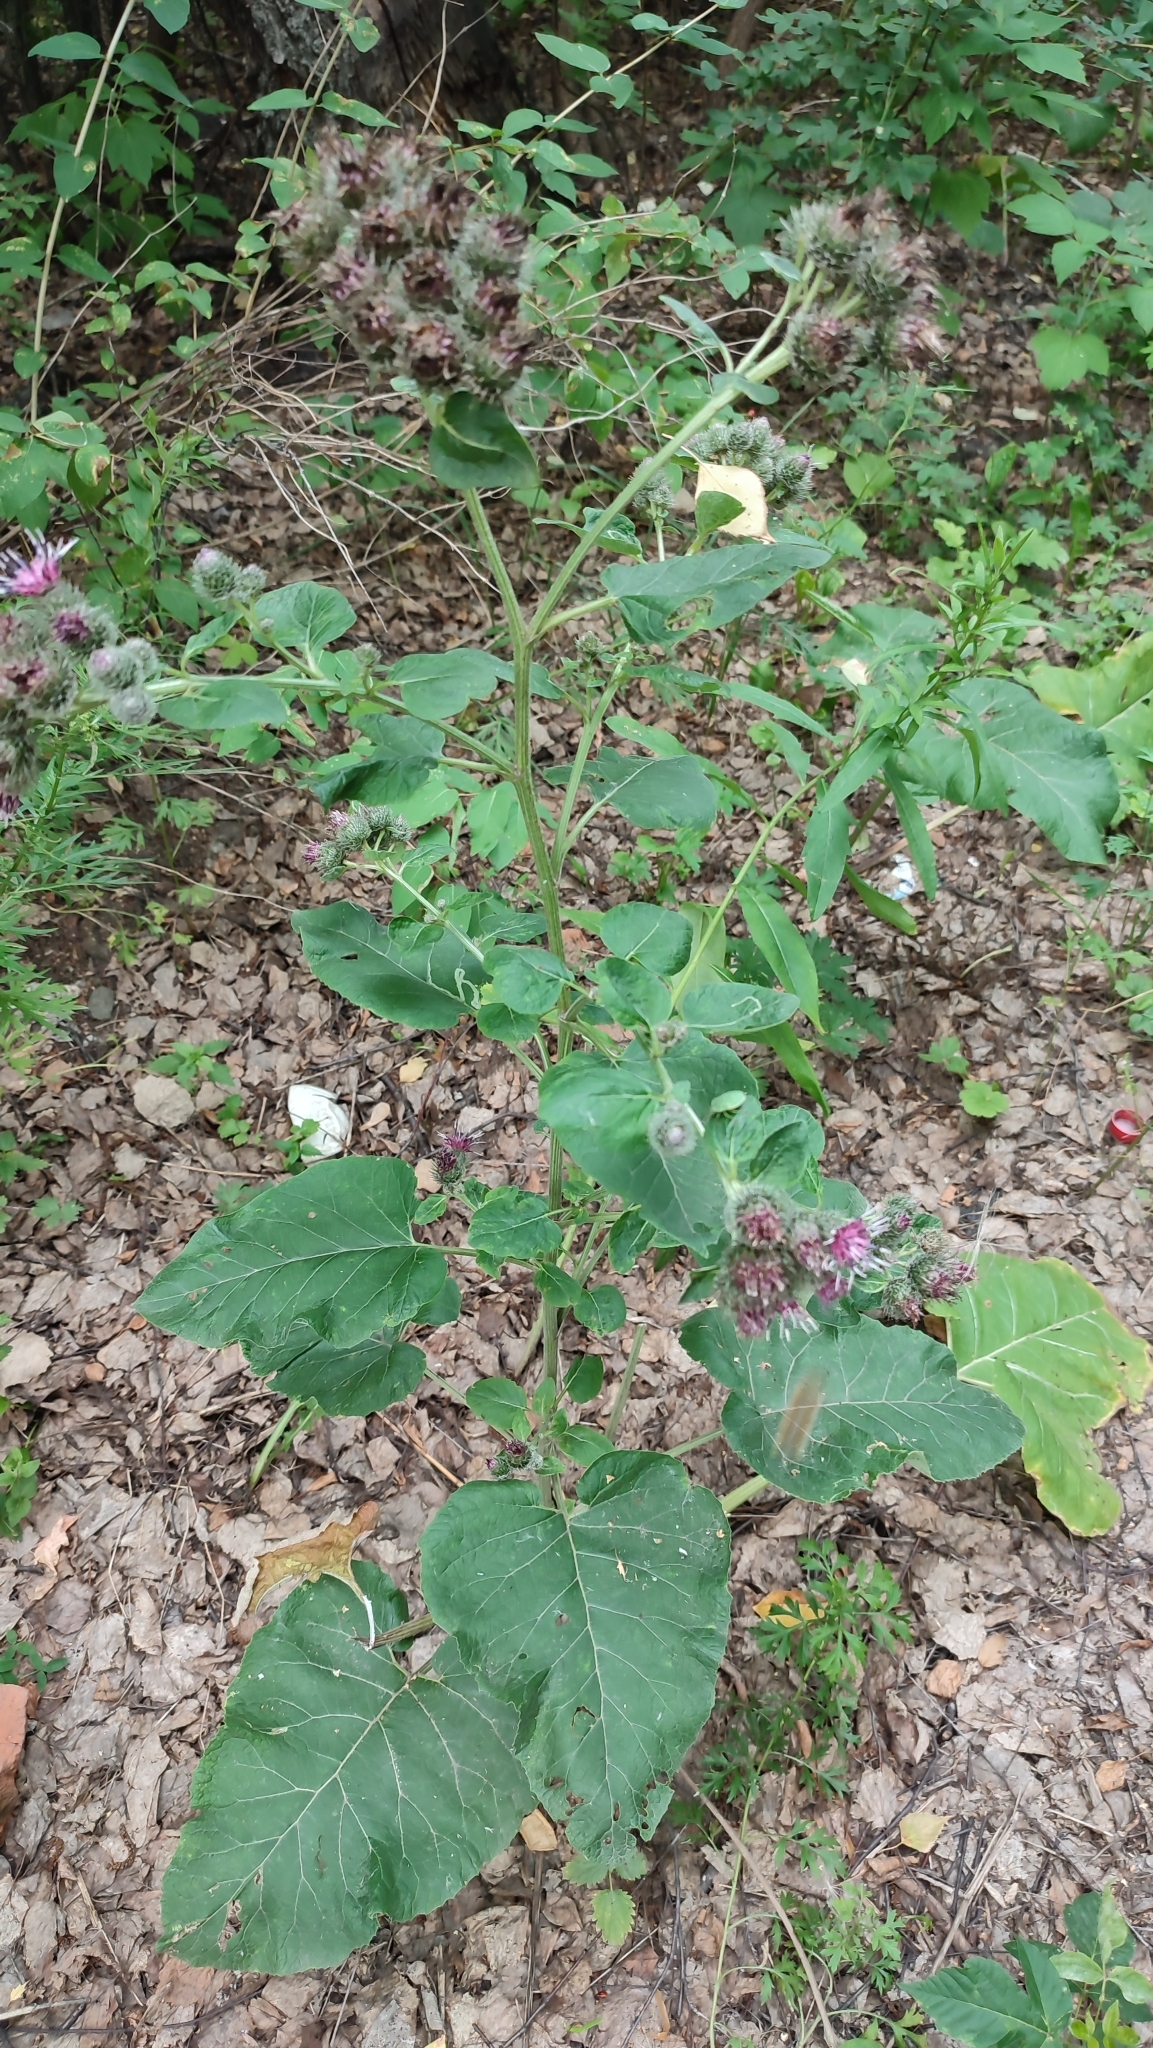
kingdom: Plantae
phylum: Tracheophyta
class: Magnoliopsida
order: Asterales
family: Asteraceae
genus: Arctium
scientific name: Arctium tomentosum
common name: Woolly burdock
